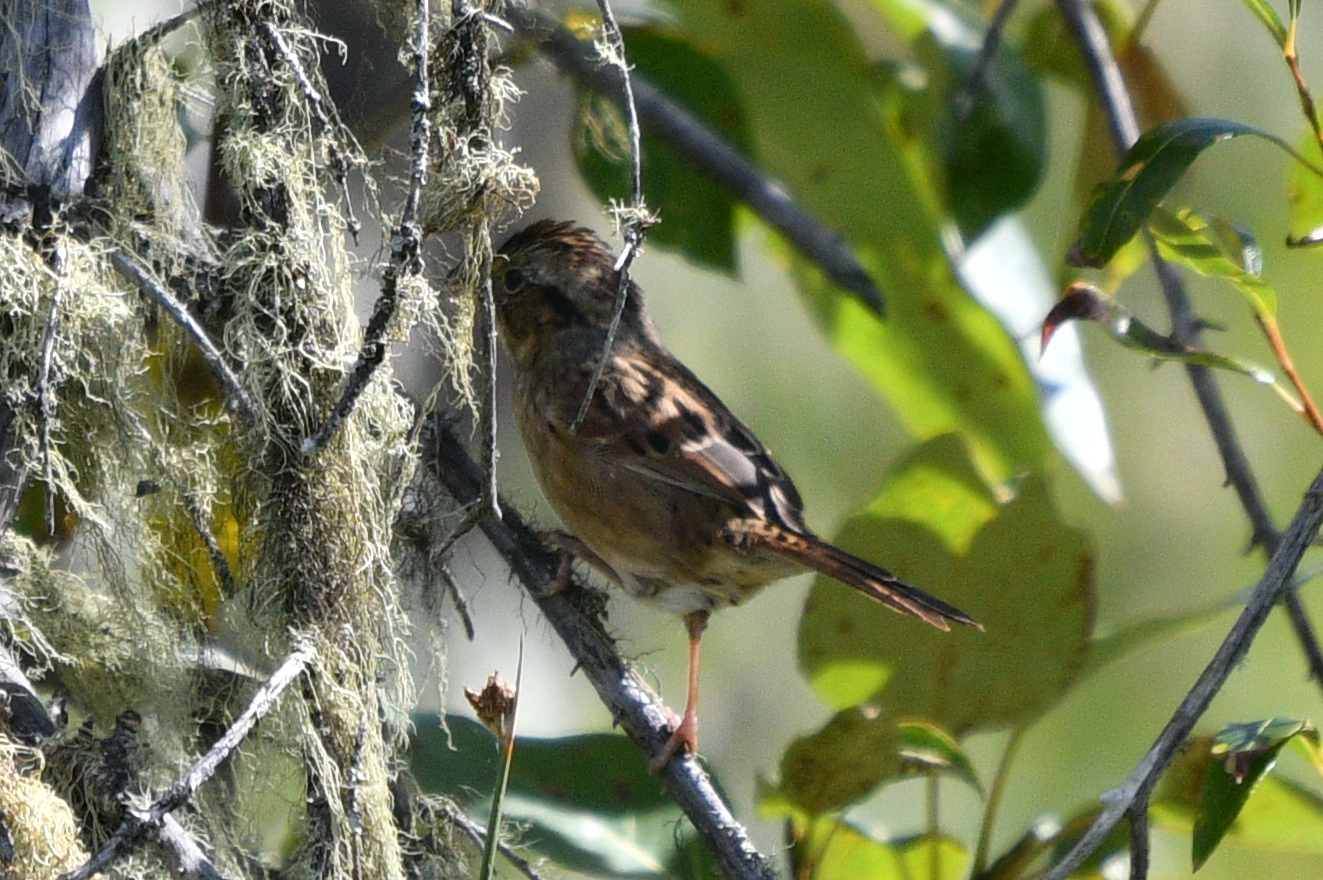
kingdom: Animalia
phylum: Chordata
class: Aves
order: Passeriformes
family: Passerellidae
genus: Melospiza
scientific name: Melospiza georgiana
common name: Swamp sparrow
